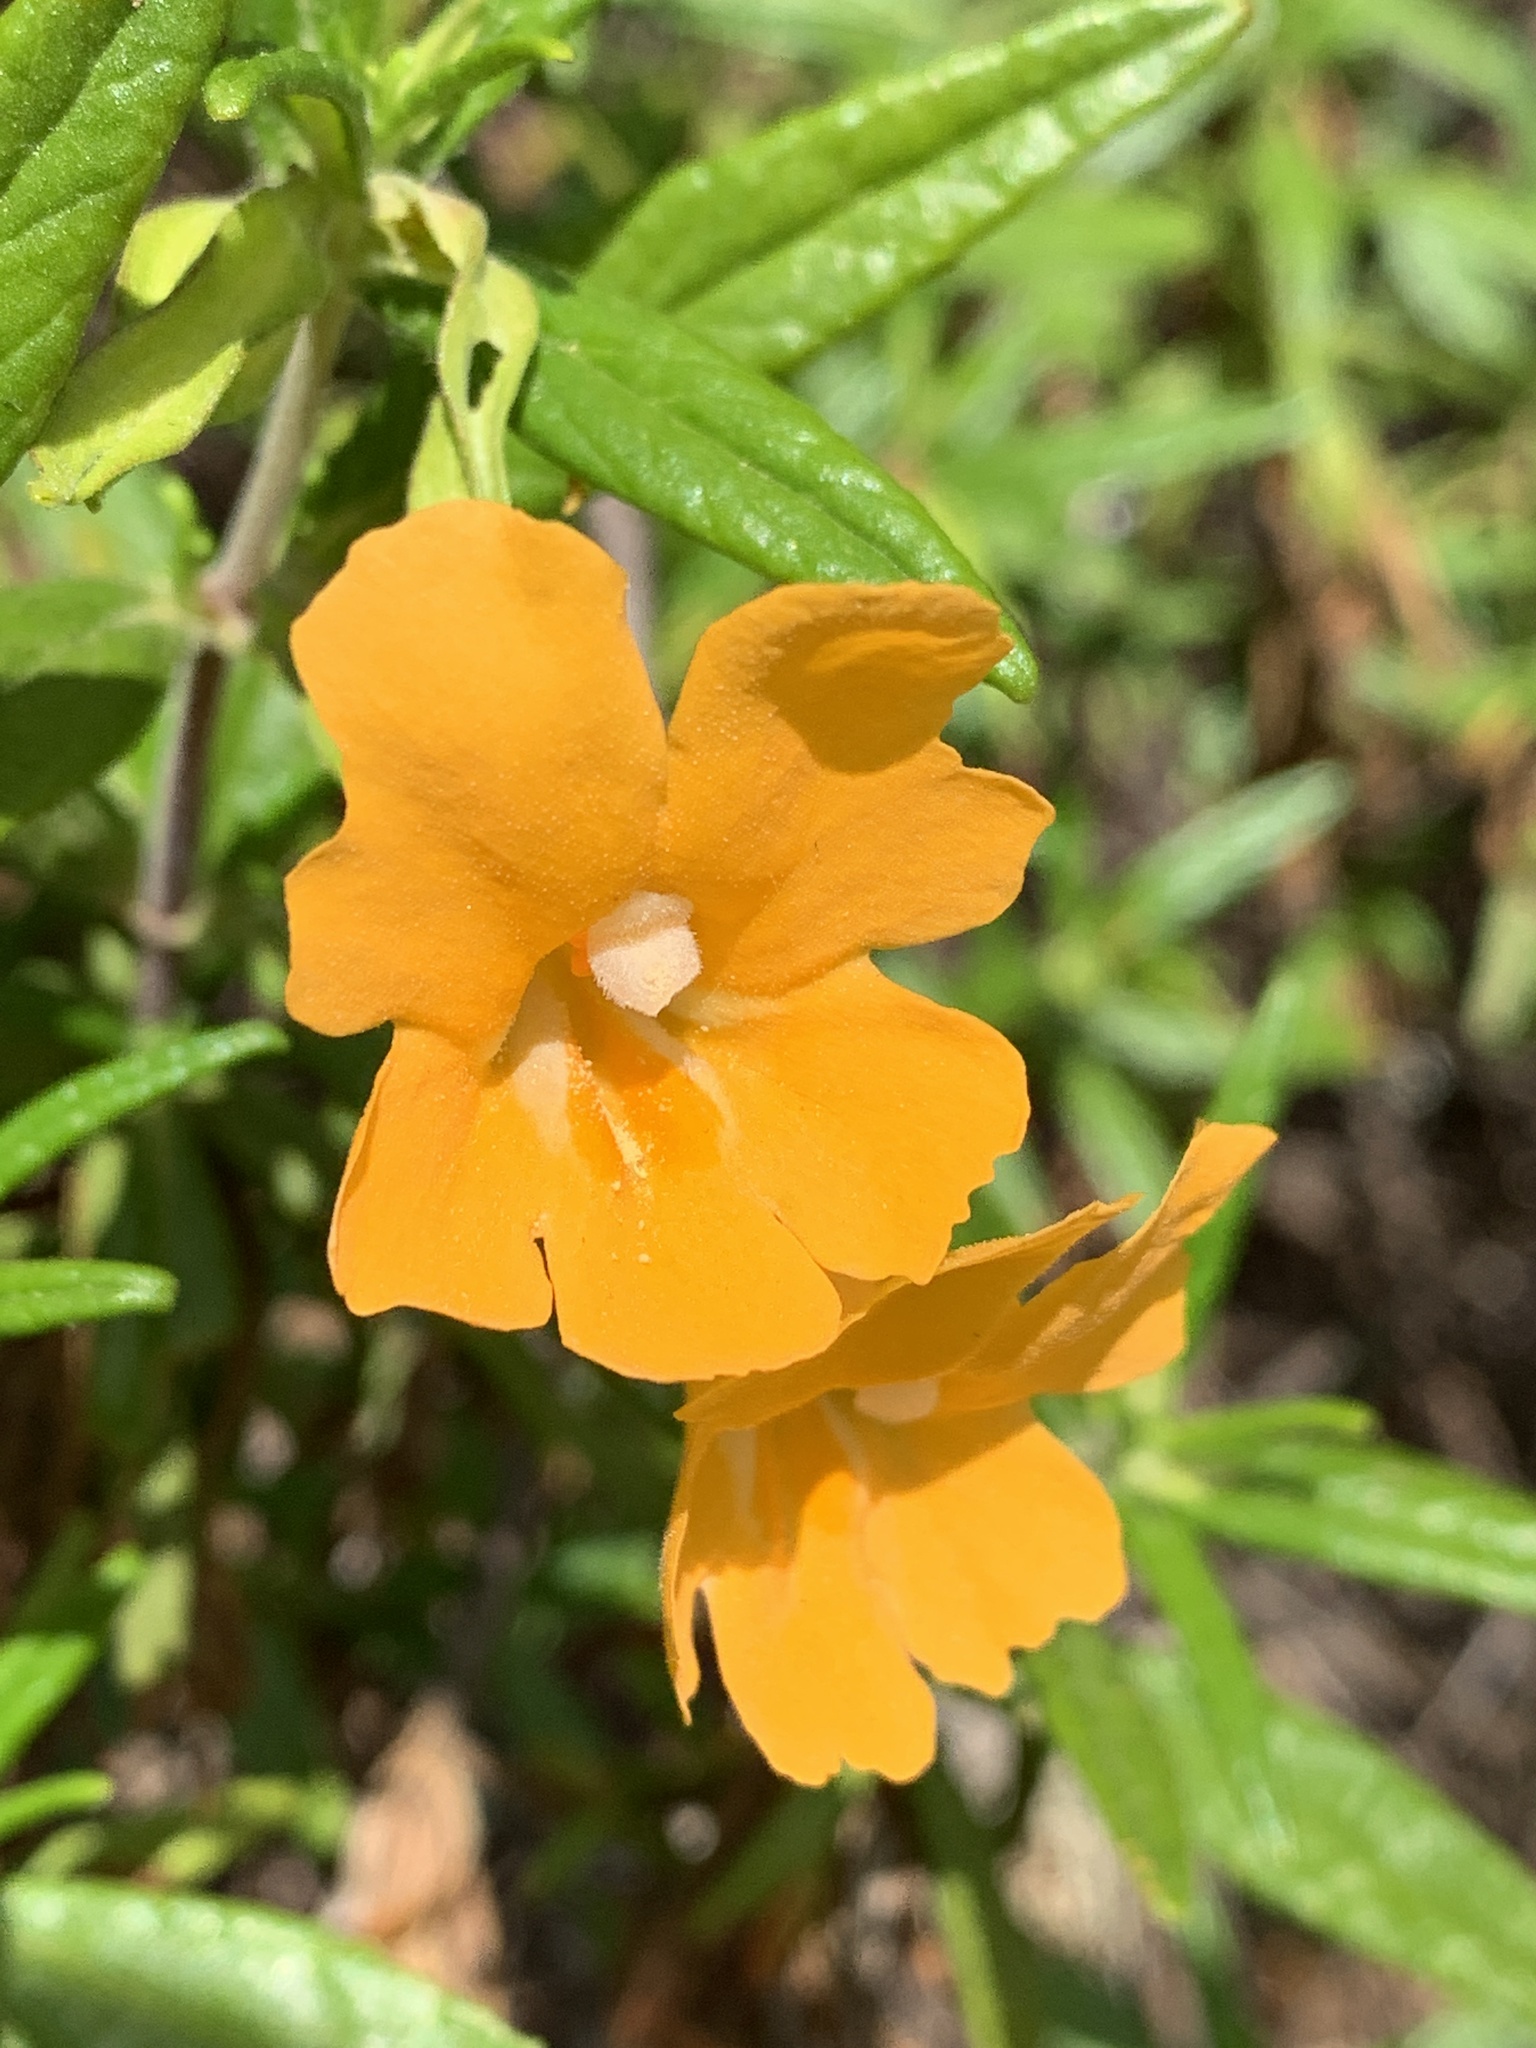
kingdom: Plantae
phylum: Tracheophyta
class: Magnoliopsida
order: Lamiales
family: Phrymaceae
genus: Diplacus
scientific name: Diplacus aurantiacus
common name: Bush monkey-flower
